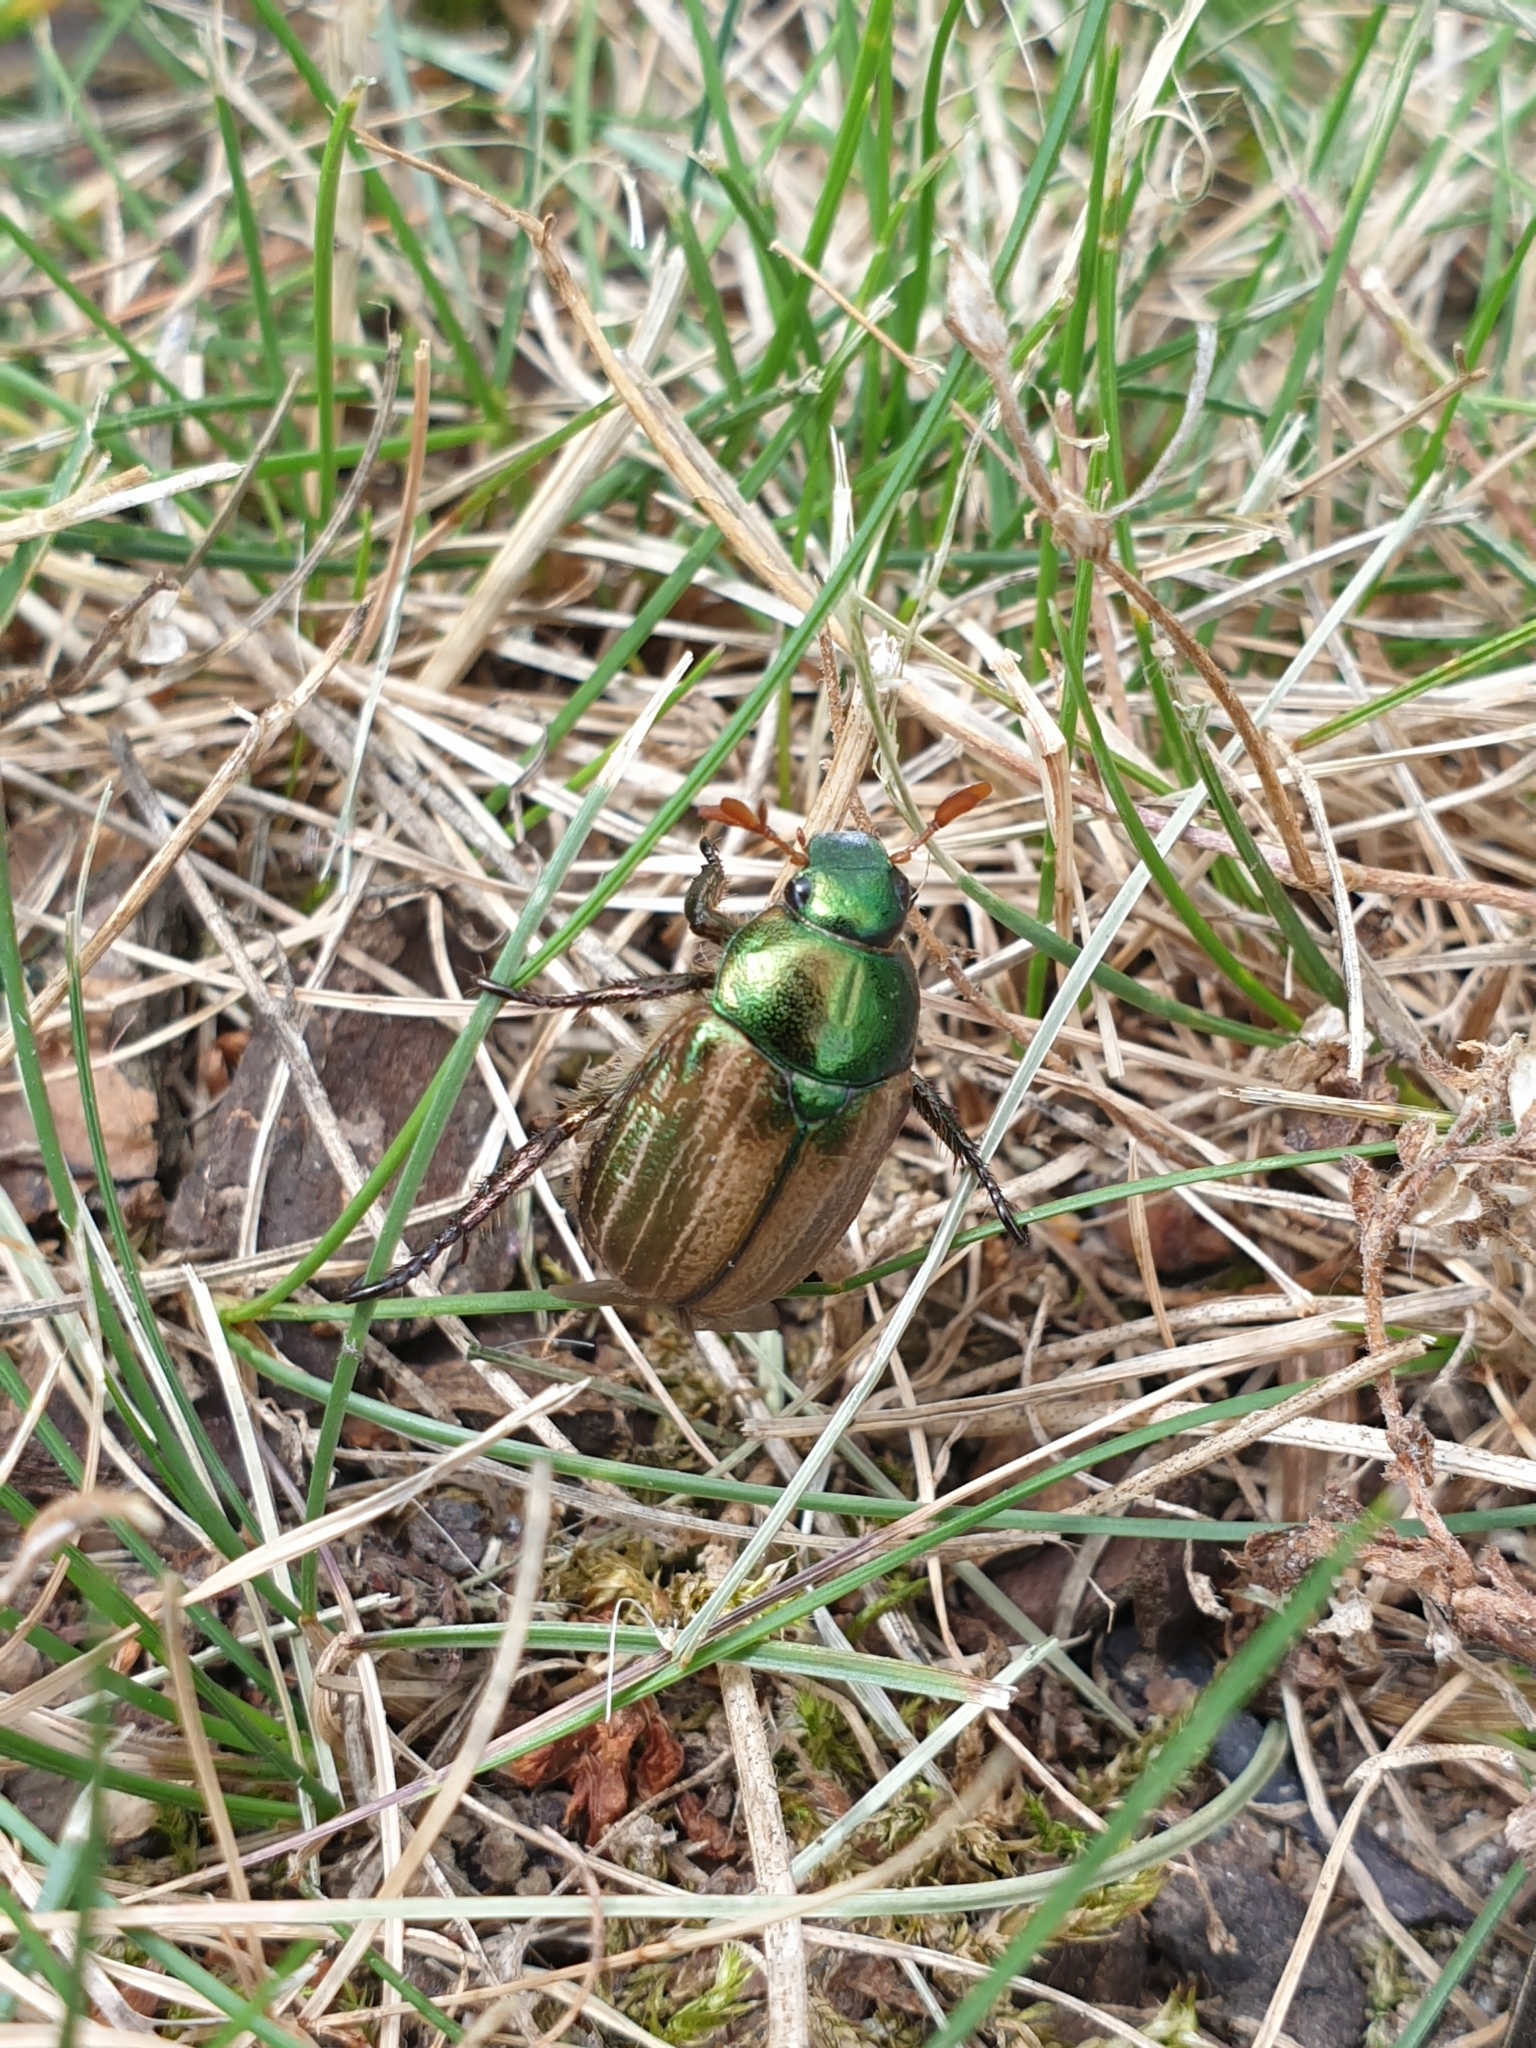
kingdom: Animalia
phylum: Arthropoda
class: Insecta
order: Coleoptera
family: Scarabaeidae
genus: Anomala
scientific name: Anomala dubia
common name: Dune chafer
